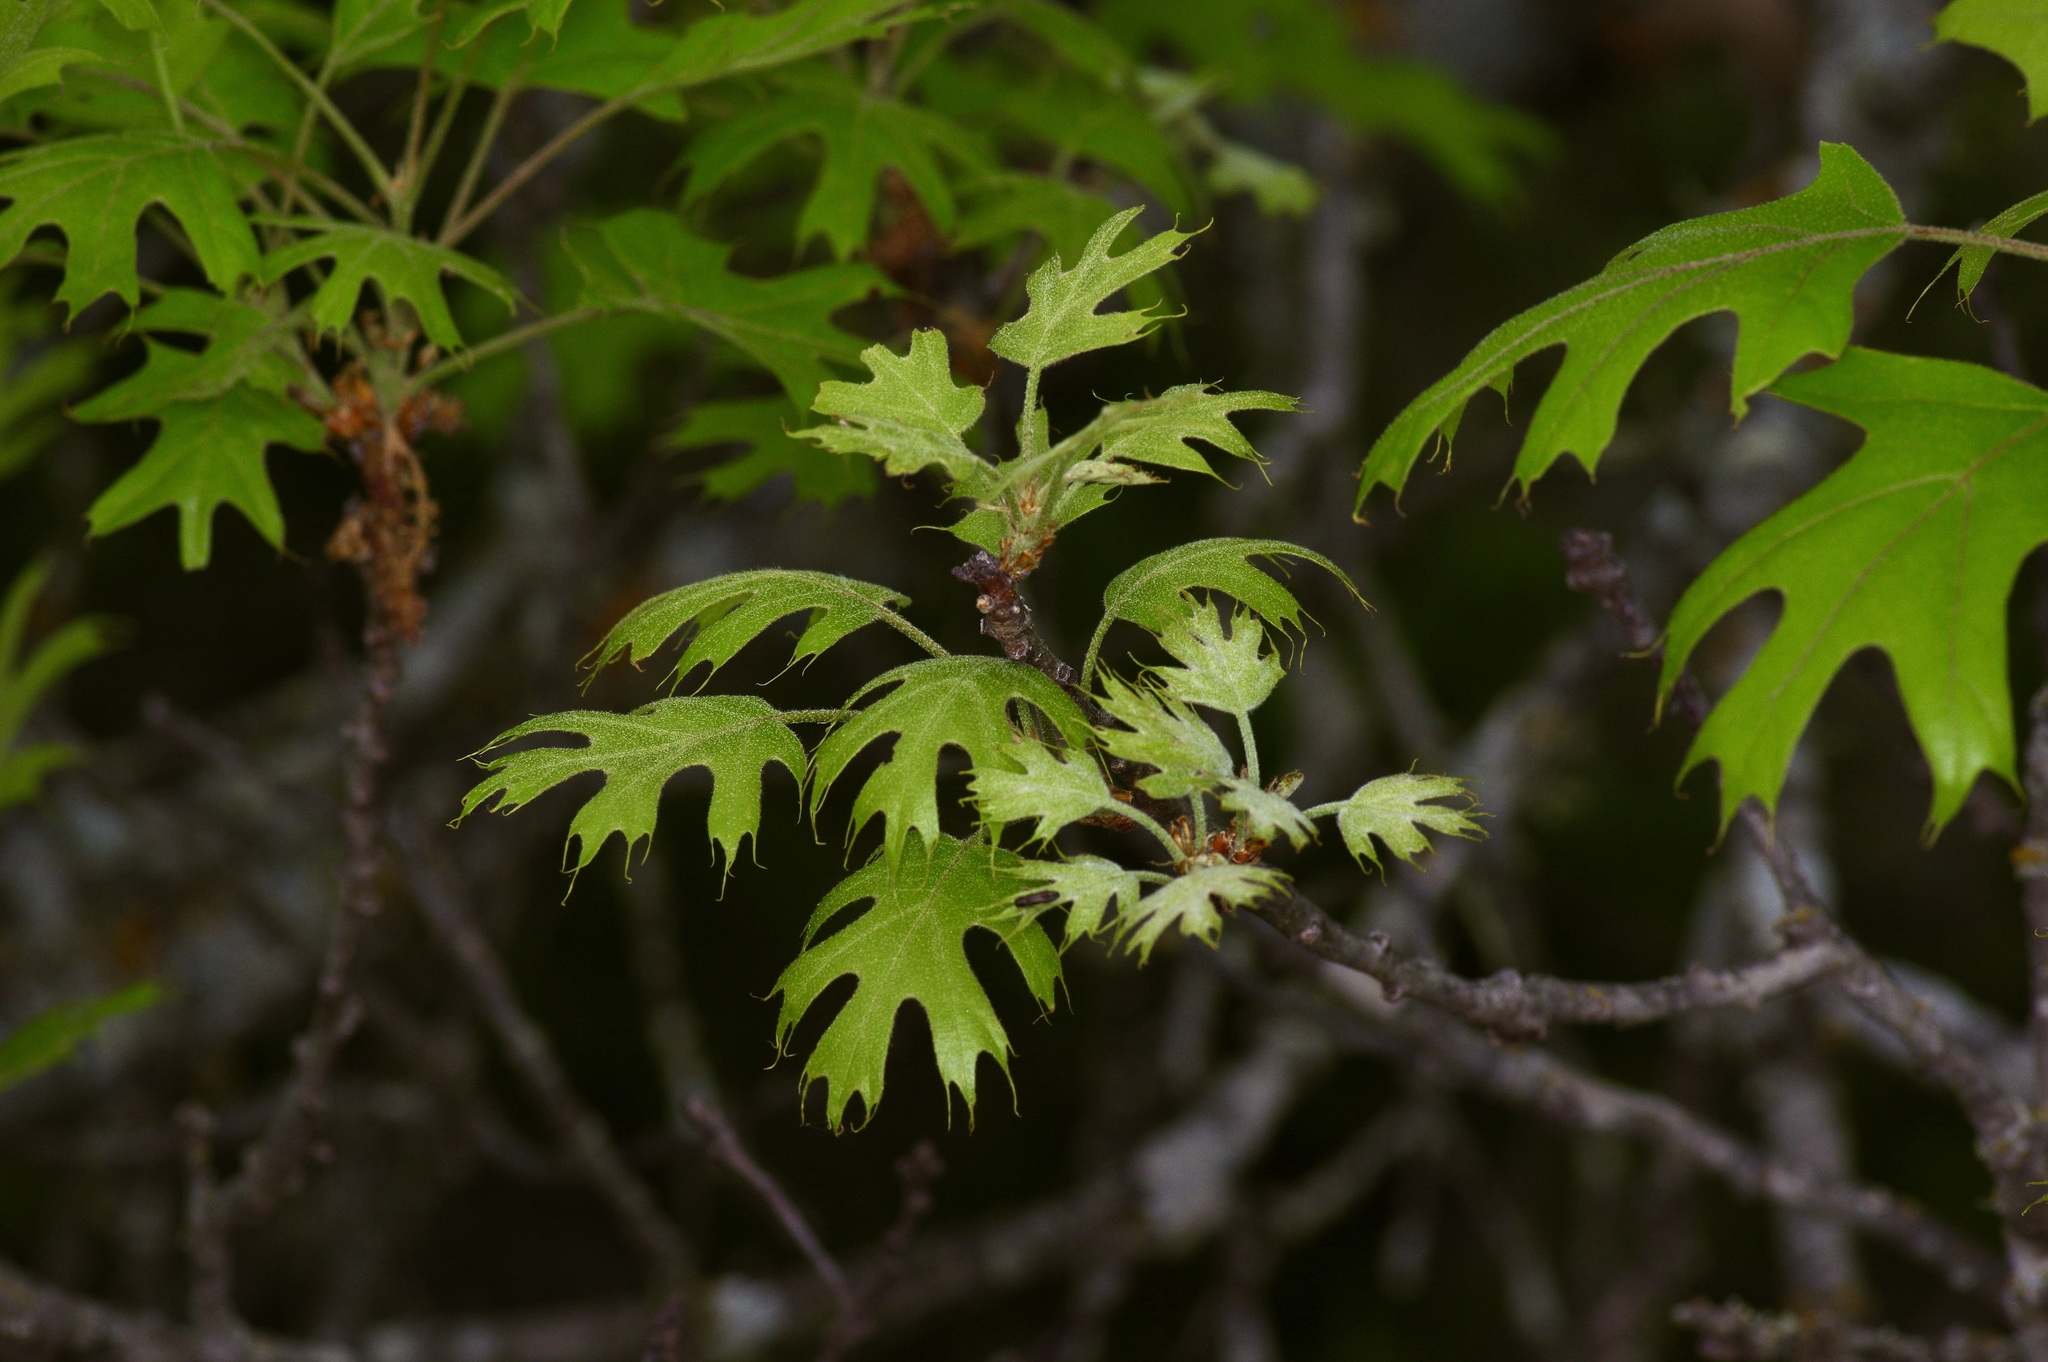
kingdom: Plantae
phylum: Tracheophyta
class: Magnoliopsida
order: Fagales
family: Fagaceae
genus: Quercus
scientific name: Quercus buckleyi
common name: Buckley oak
